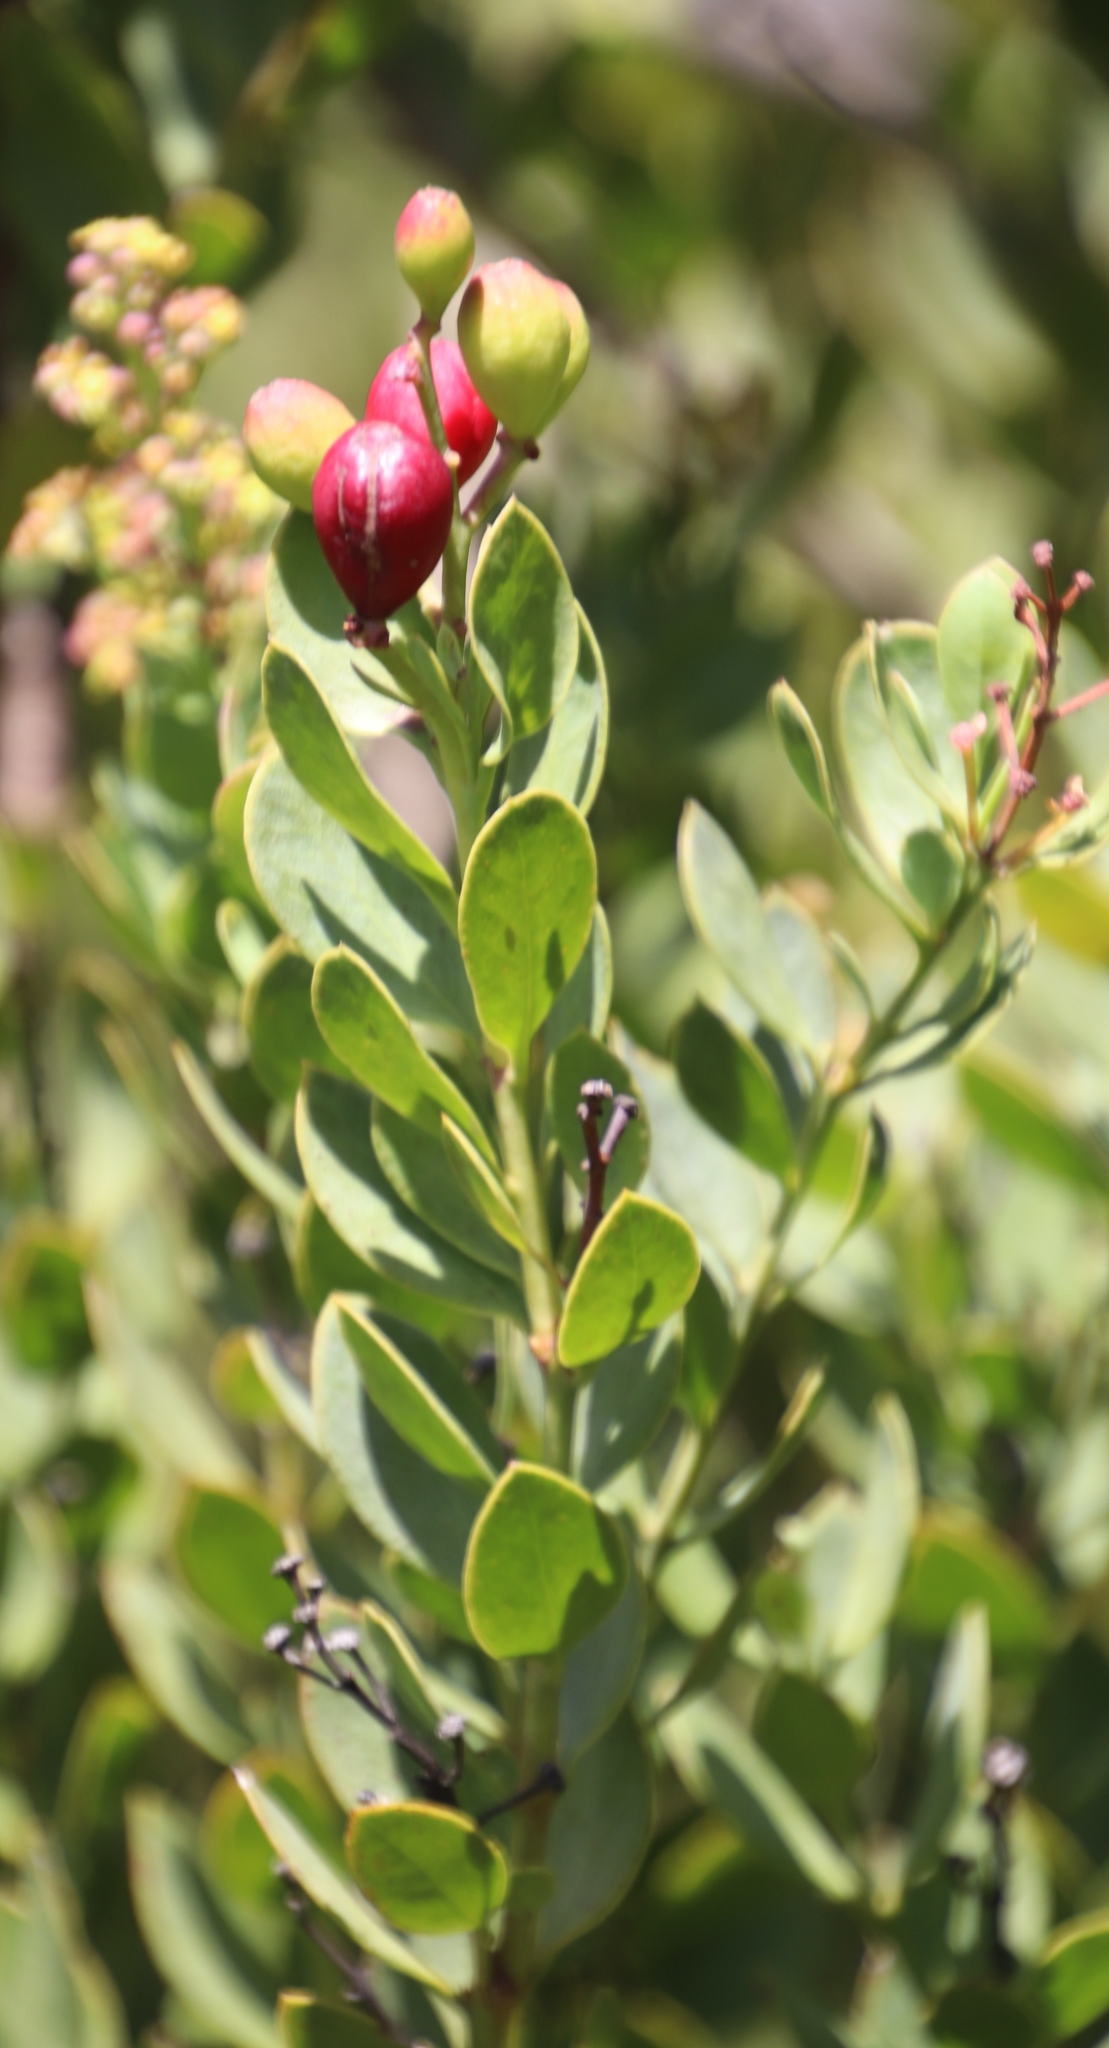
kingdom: Plantae
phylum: Tracheophyta
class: Magnoliopsida
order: Santalales
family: Santalaceae
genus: Osyris
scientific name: Osyris compressa
